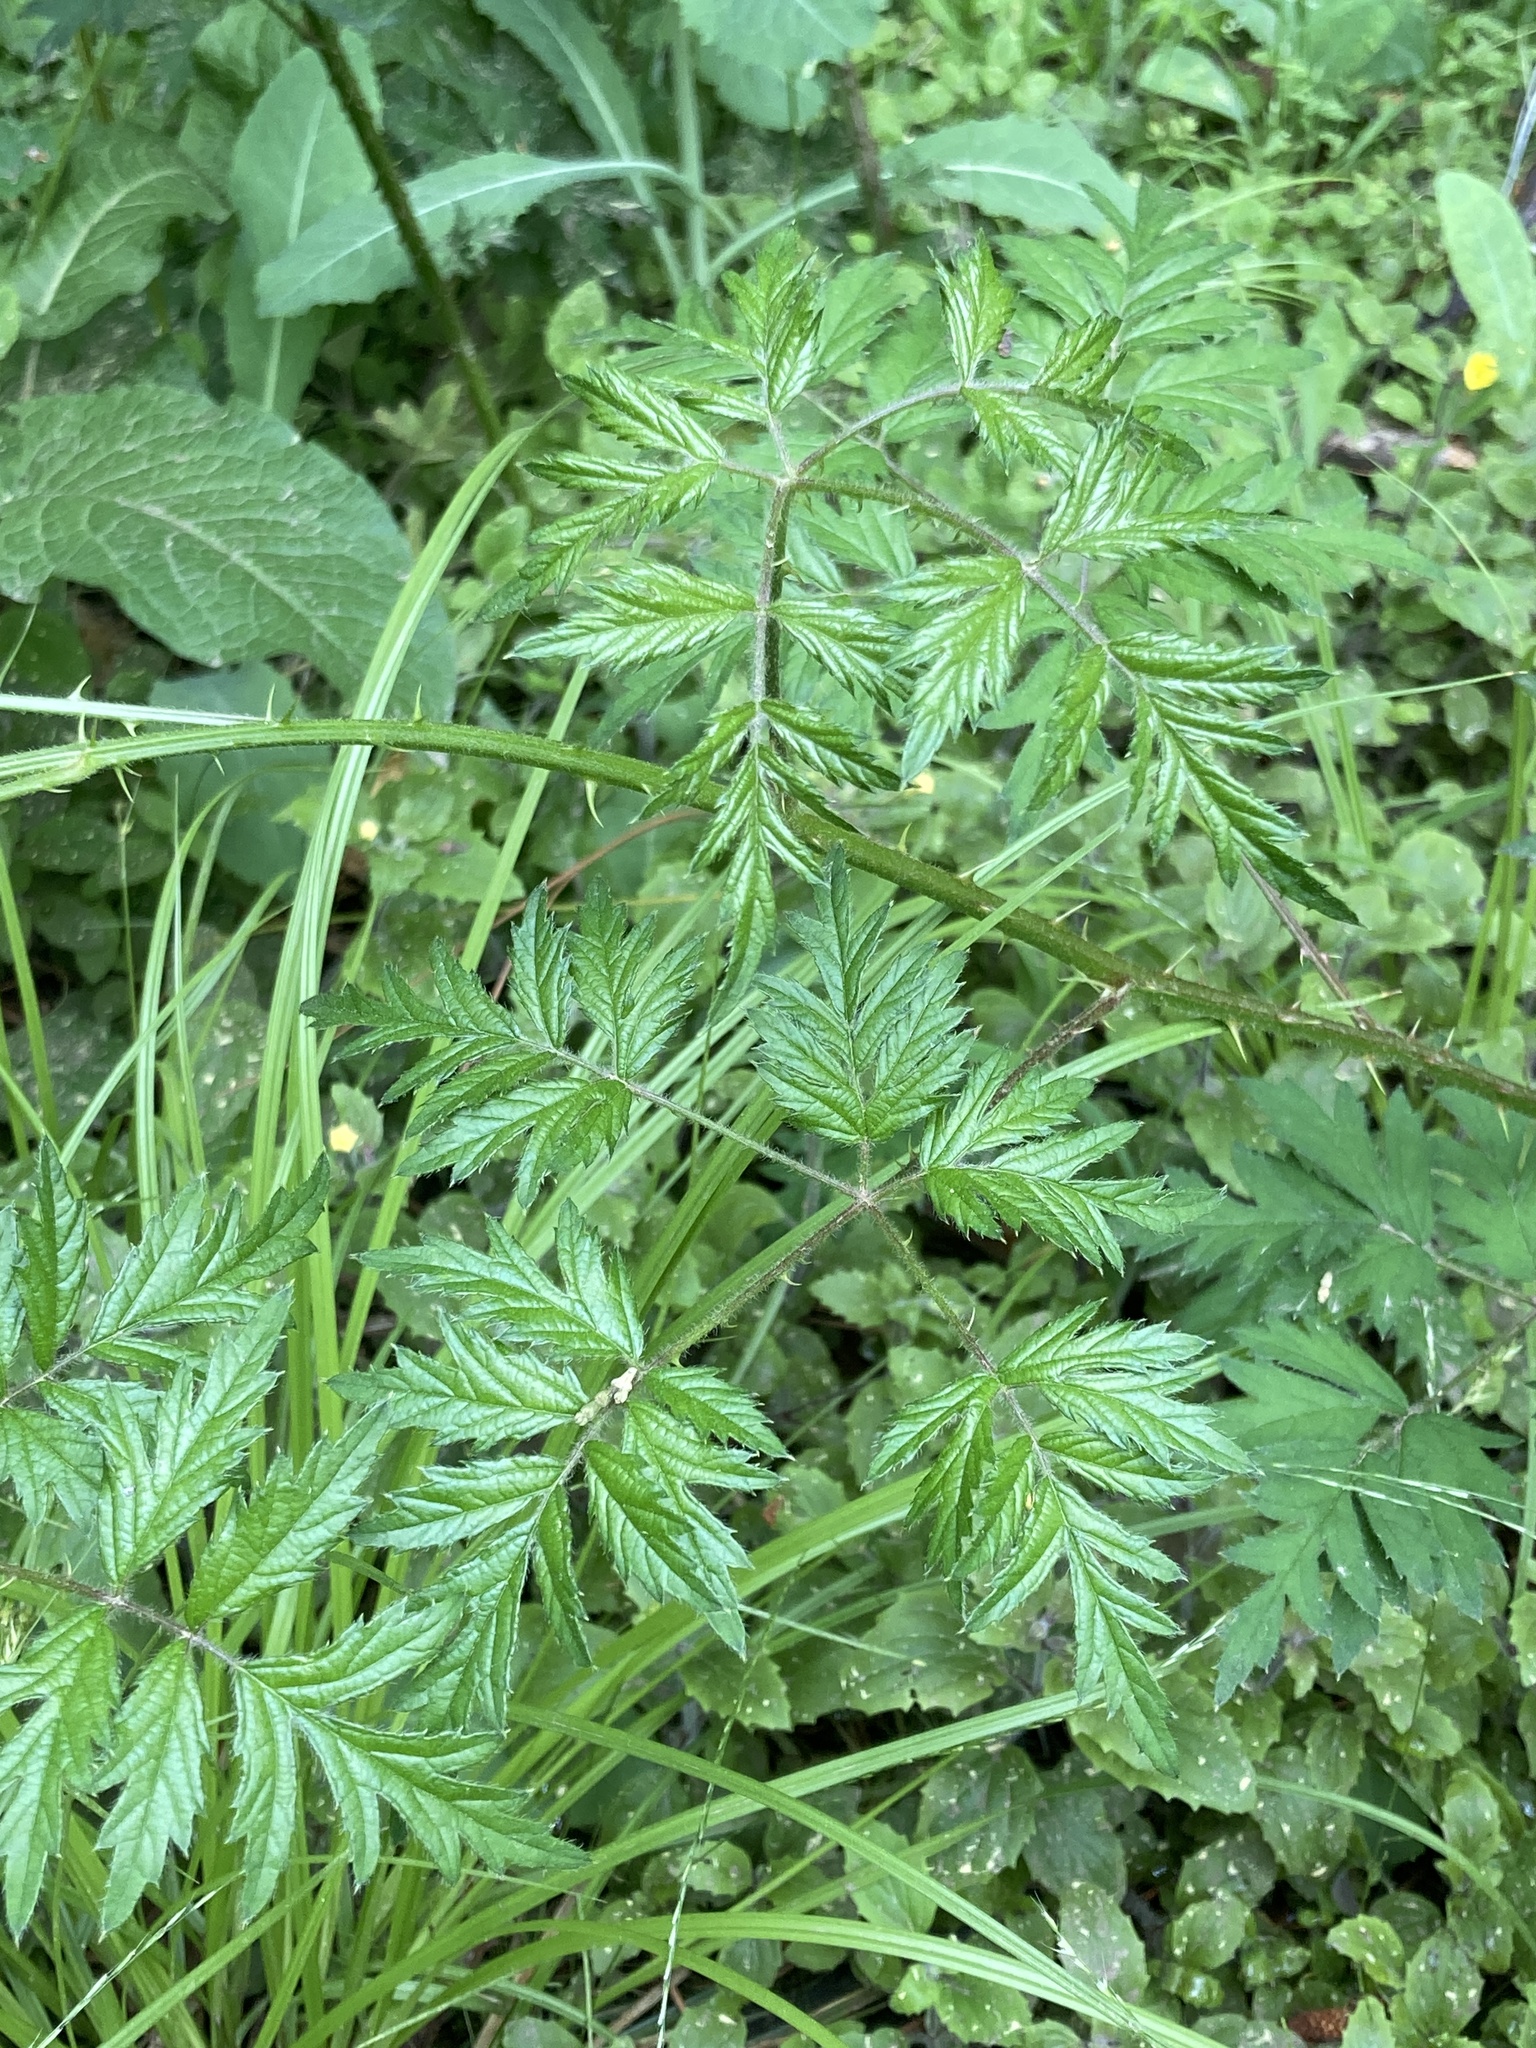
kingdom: Plantae
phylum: Tracheophyta
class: Magnoliopsida
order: Rosales
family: Rosaceae
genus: Rubus
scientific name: Rubus laciniatus
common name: Evergreen blackberry
